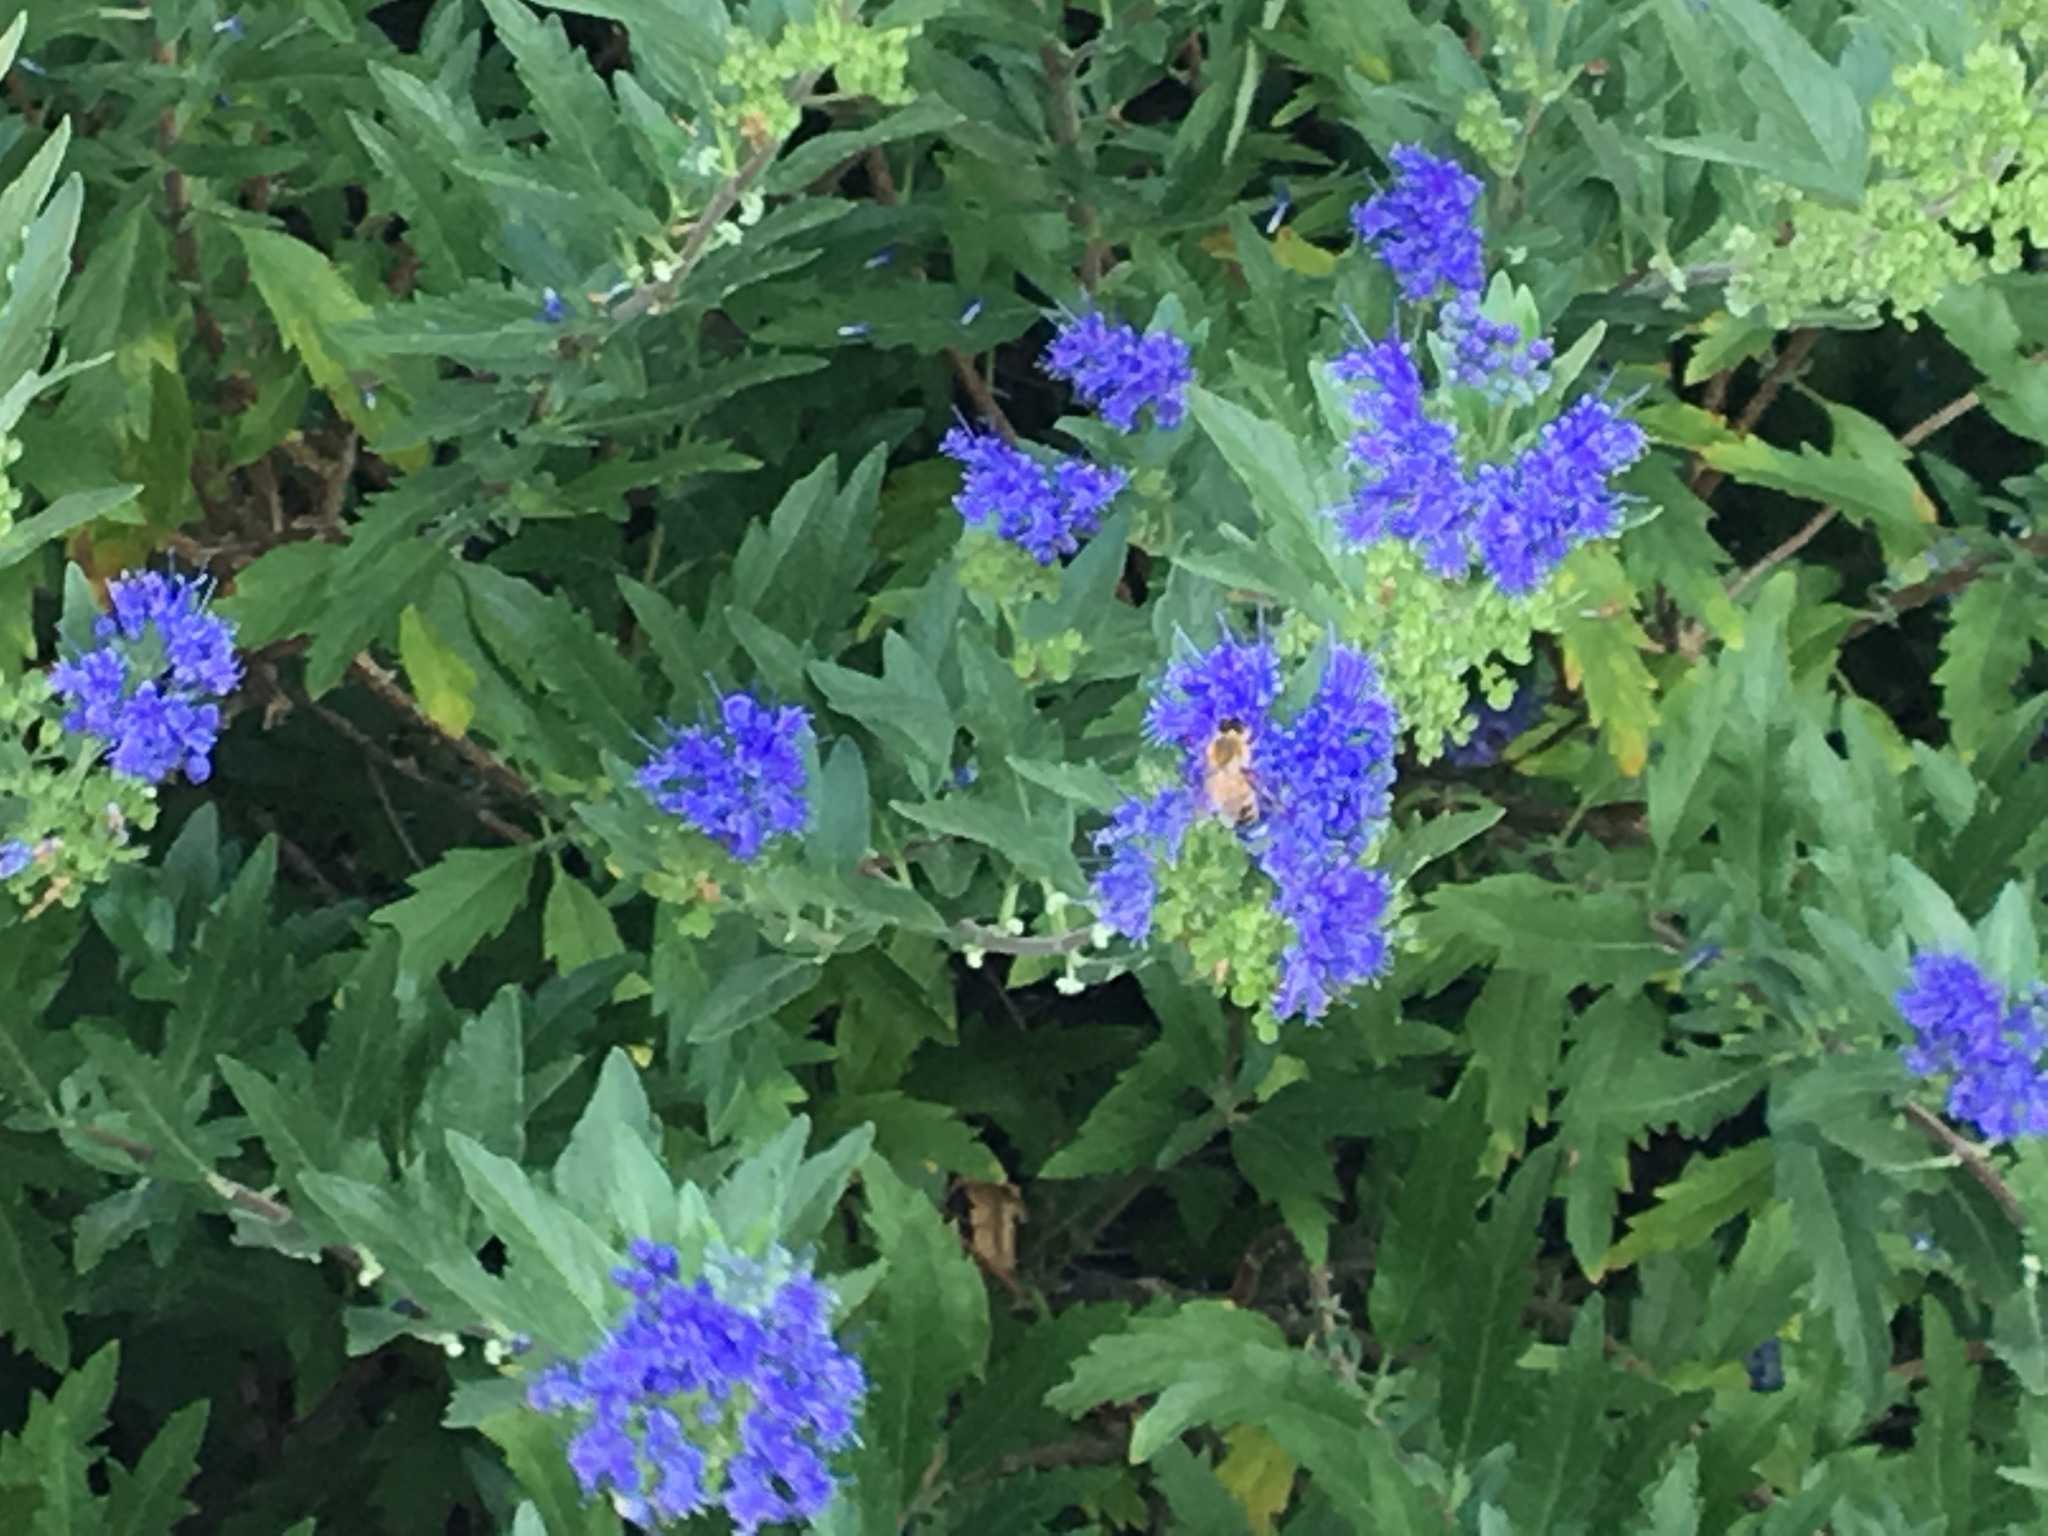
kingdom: Animalia
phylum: Arthropoda
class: Insecta
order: Hymenoptera
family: Apidae
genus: Apis
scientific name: Apis mellifera
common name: Honey bee
